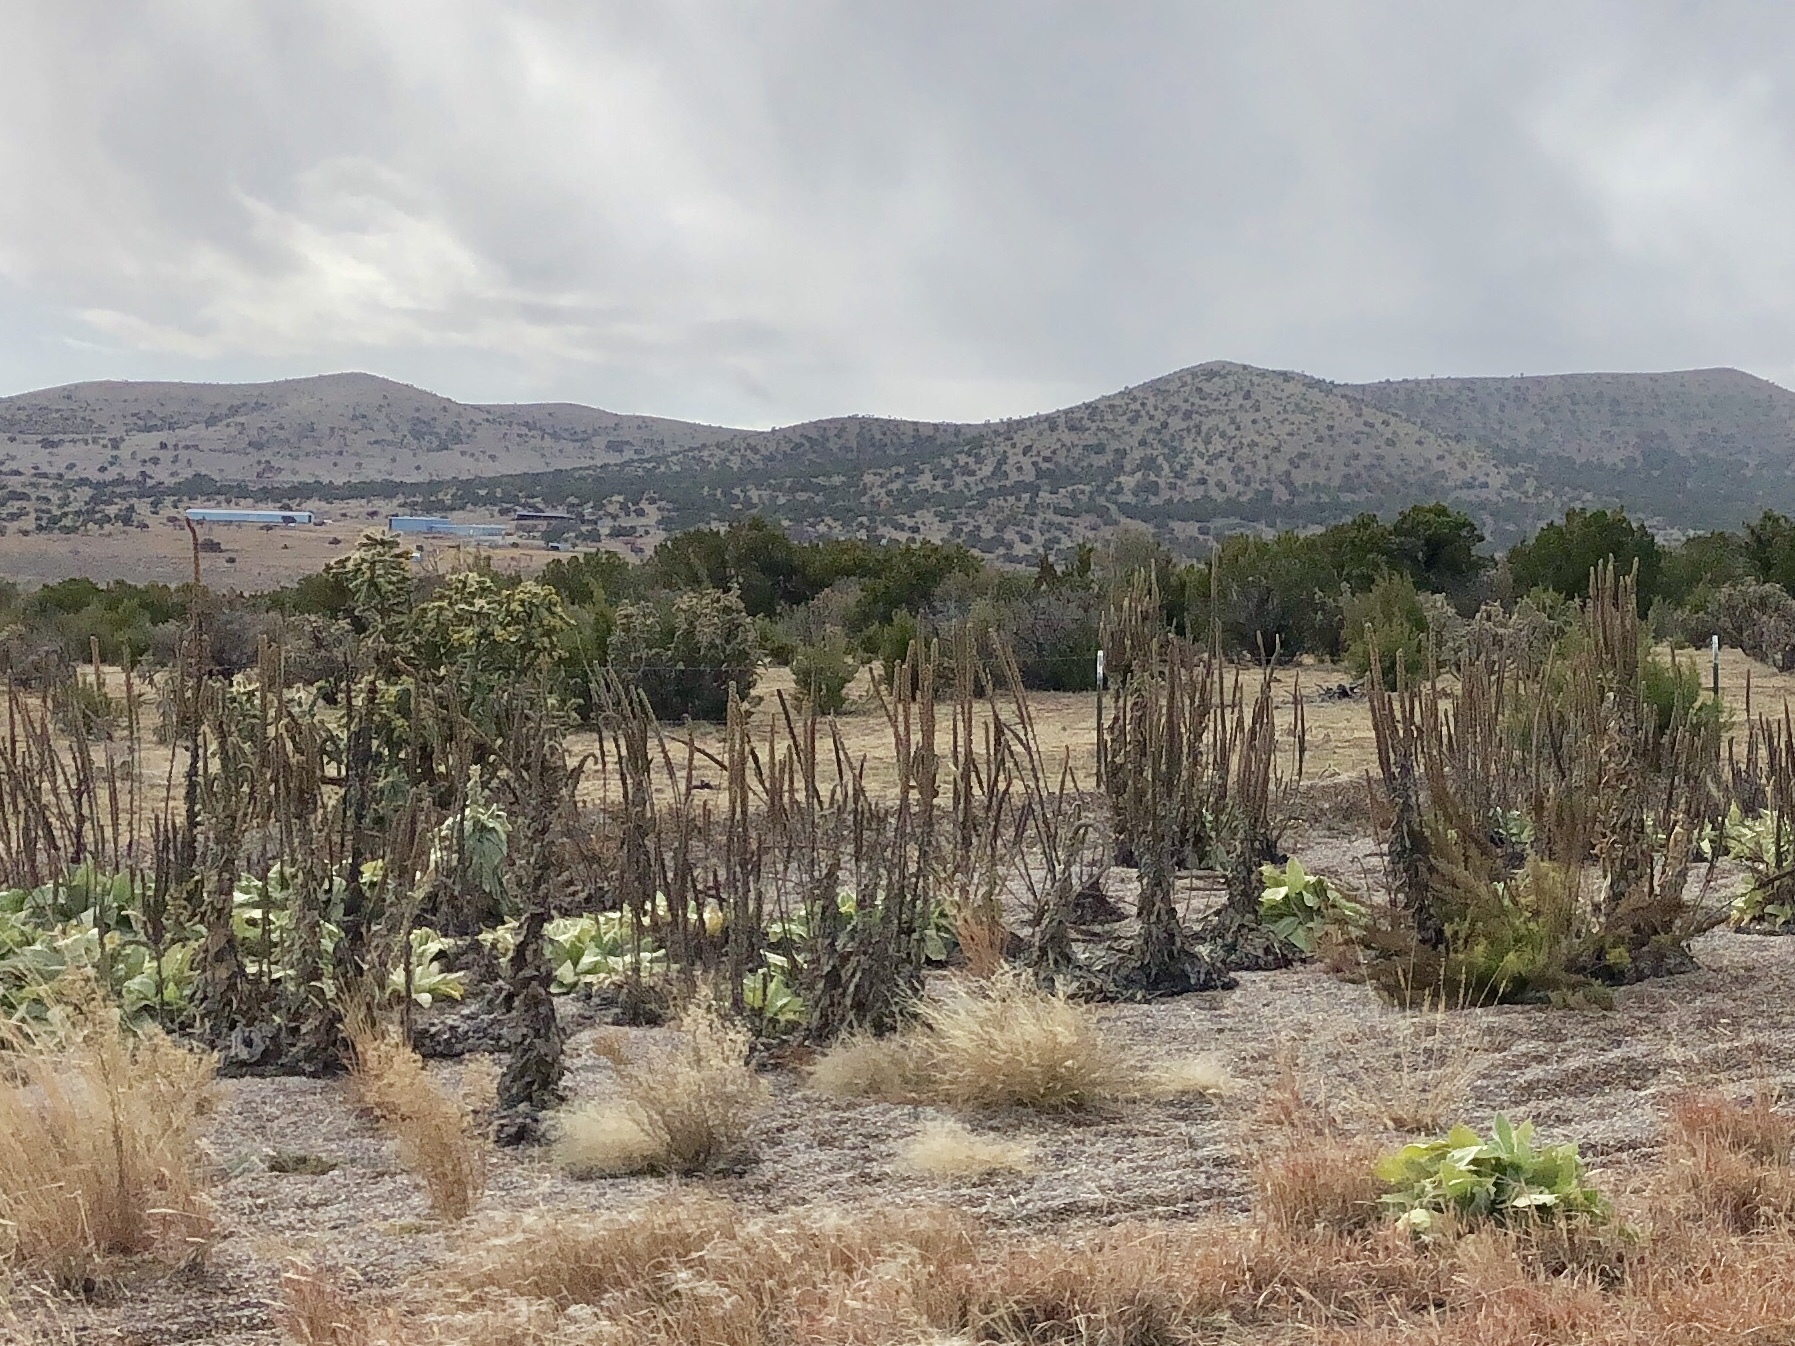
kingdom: Plantae
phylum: Tracheophyta
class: Magnoliopsida
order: Lamiales
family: Scrophulariaceae
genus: Verbascum
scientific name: Verbascum thapsus
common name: Common mullein
